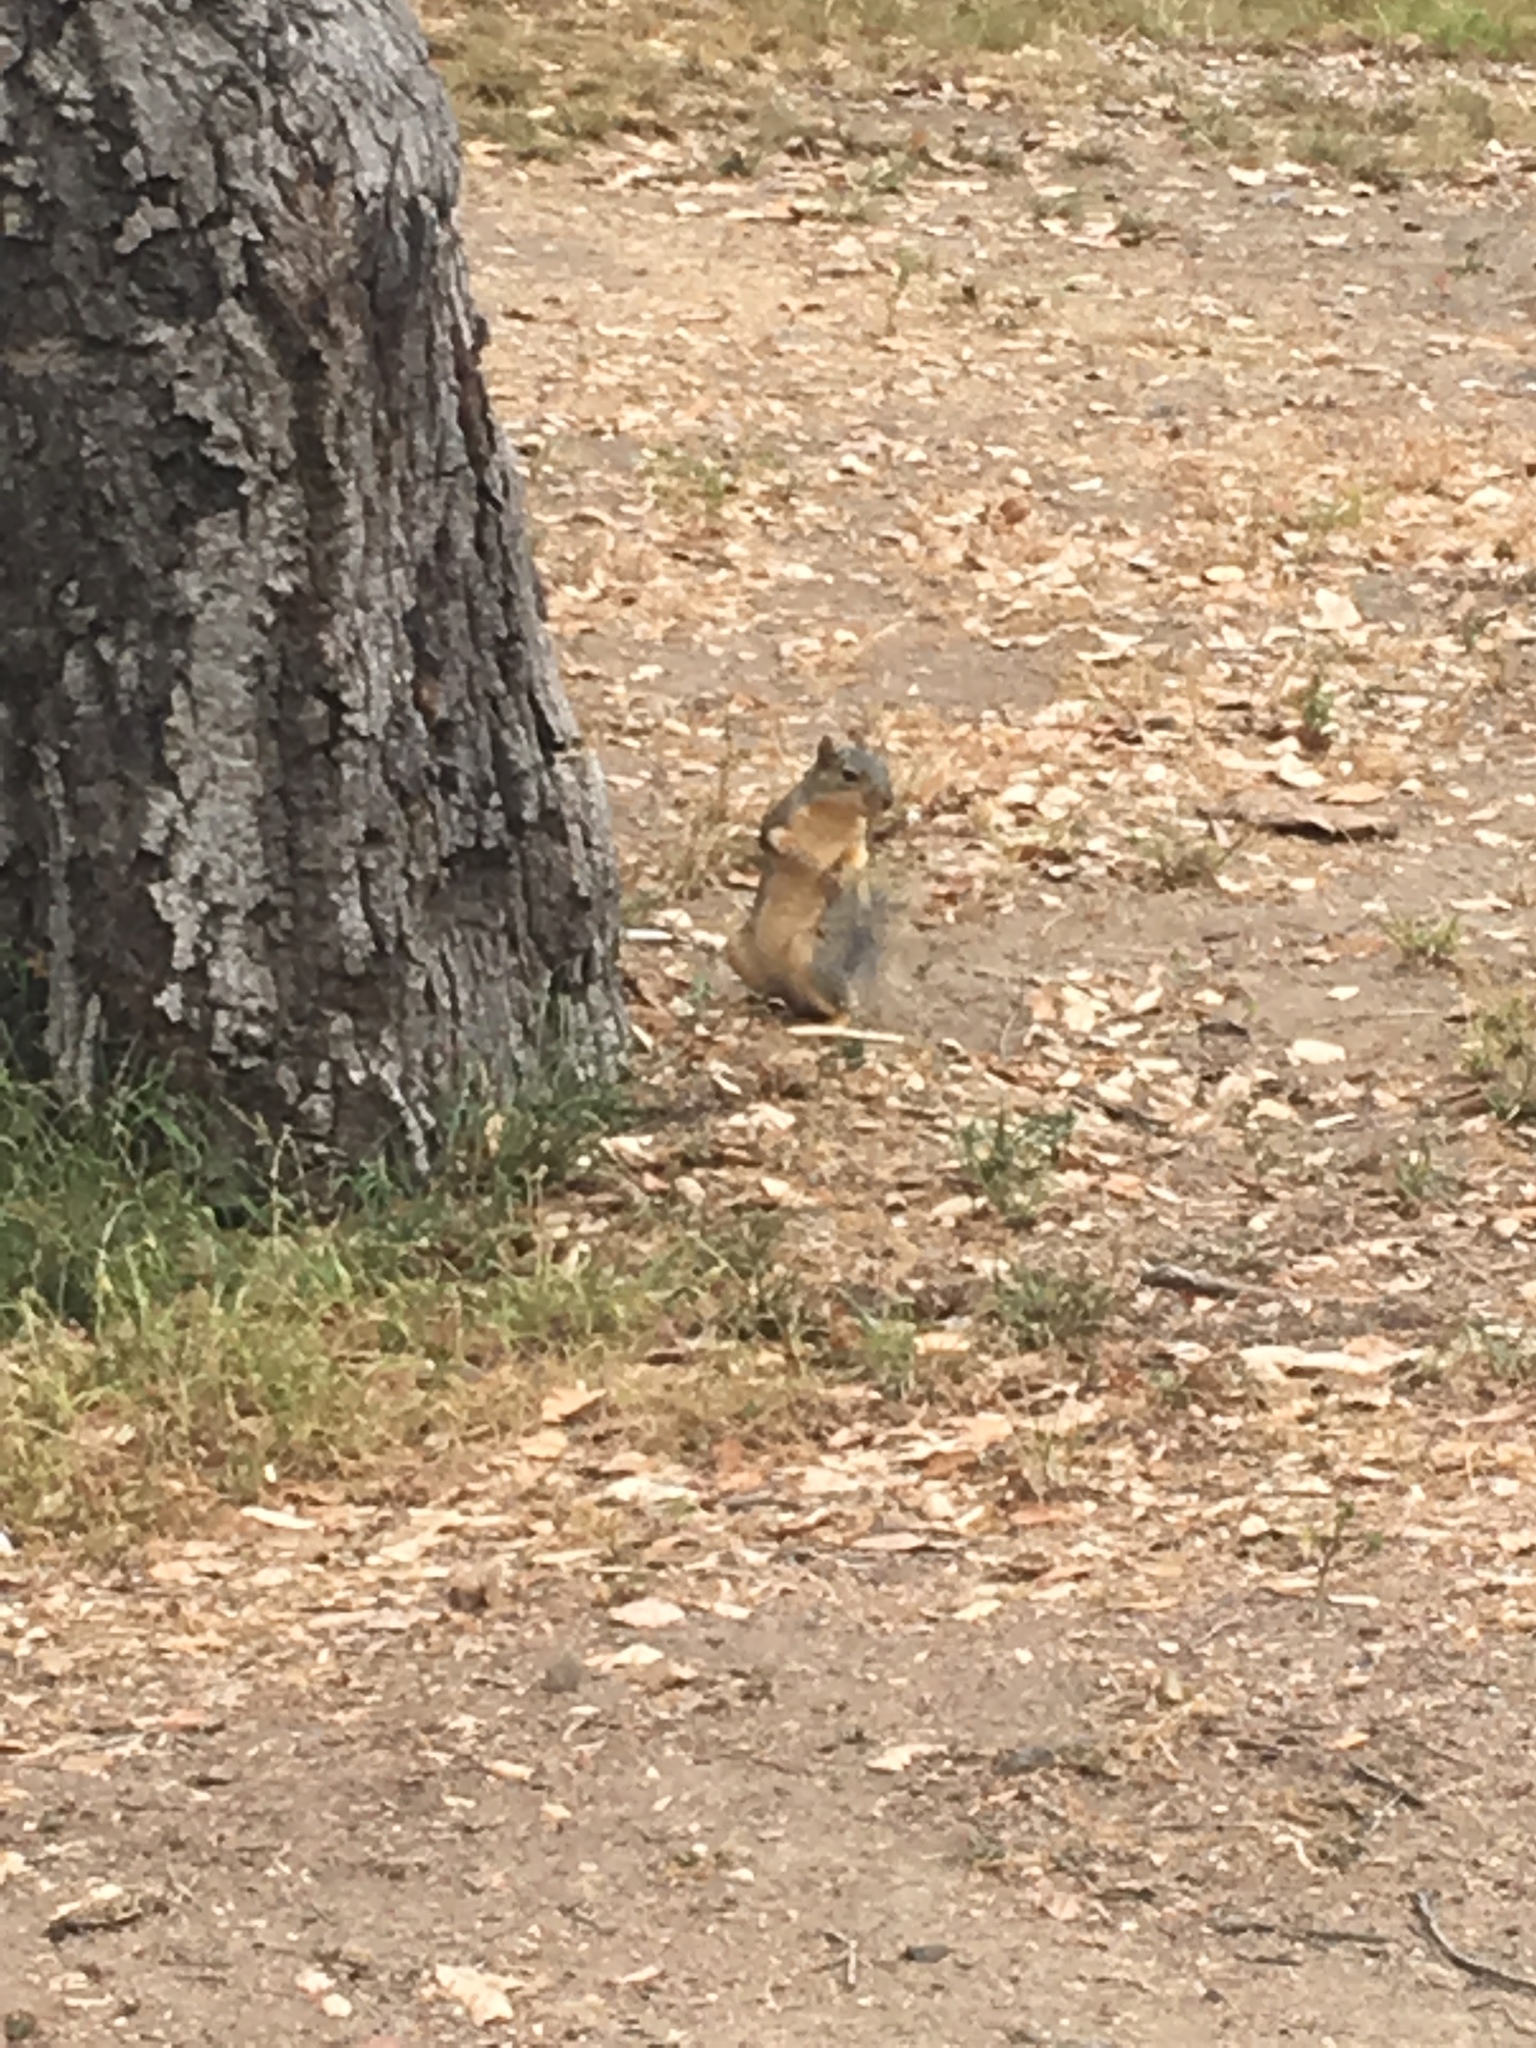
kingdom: Animalia
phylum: Chordata
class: Mammalia
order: Rodentia
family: Sciuridae
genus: Sciurus
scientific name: Sciurus niger
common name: Fox squirrel
